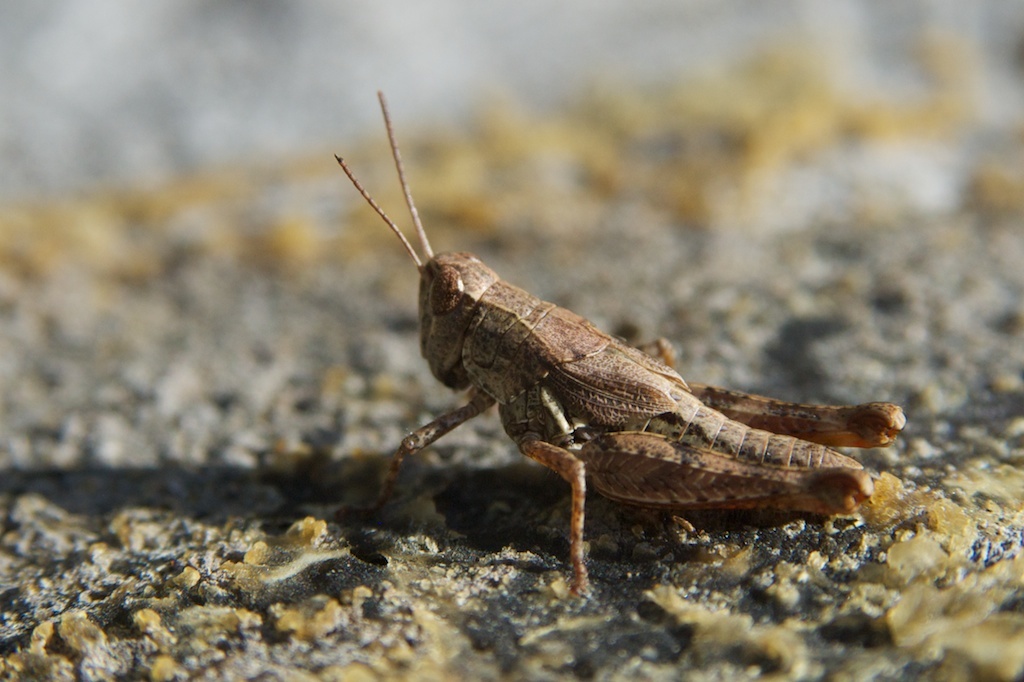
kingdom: Animalia
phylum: Arthropoda
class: Insecta
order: Orthoptera
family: Acrididae
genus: Phaulacridium
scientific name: Phaulacridium marginale
